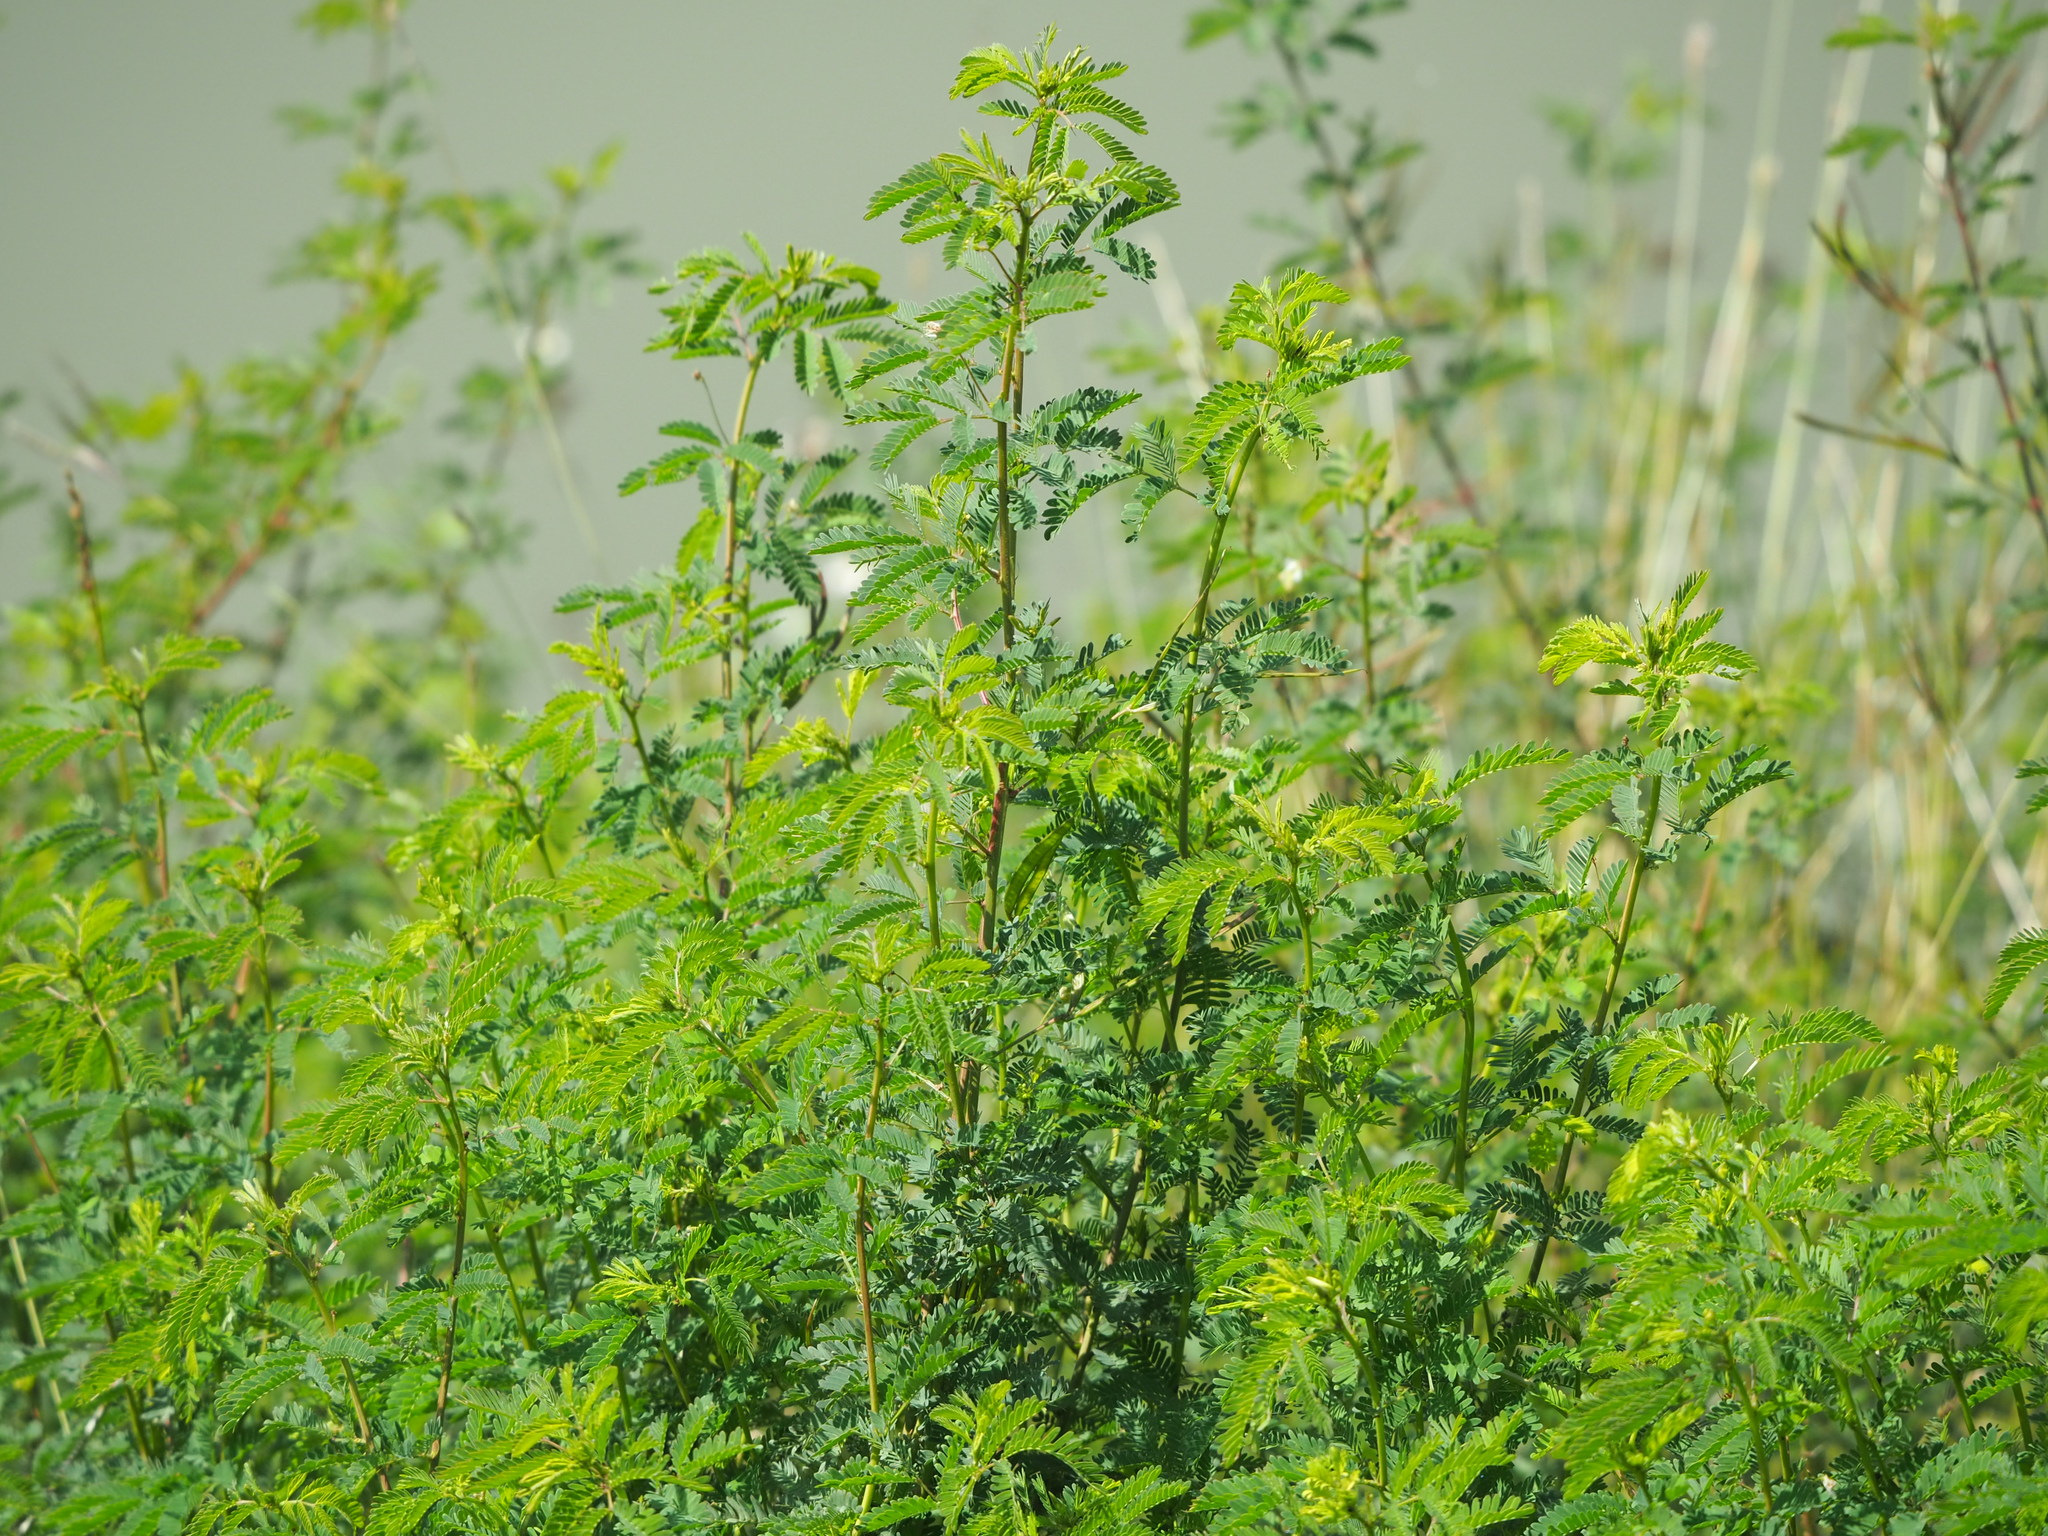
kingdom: Plantae
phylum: Tracheophyta
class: Magnoliopsida
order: Fabales
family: Fabaceae
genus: Desmanthus
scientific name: Desmanthus virgatus
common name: Wild tantan
